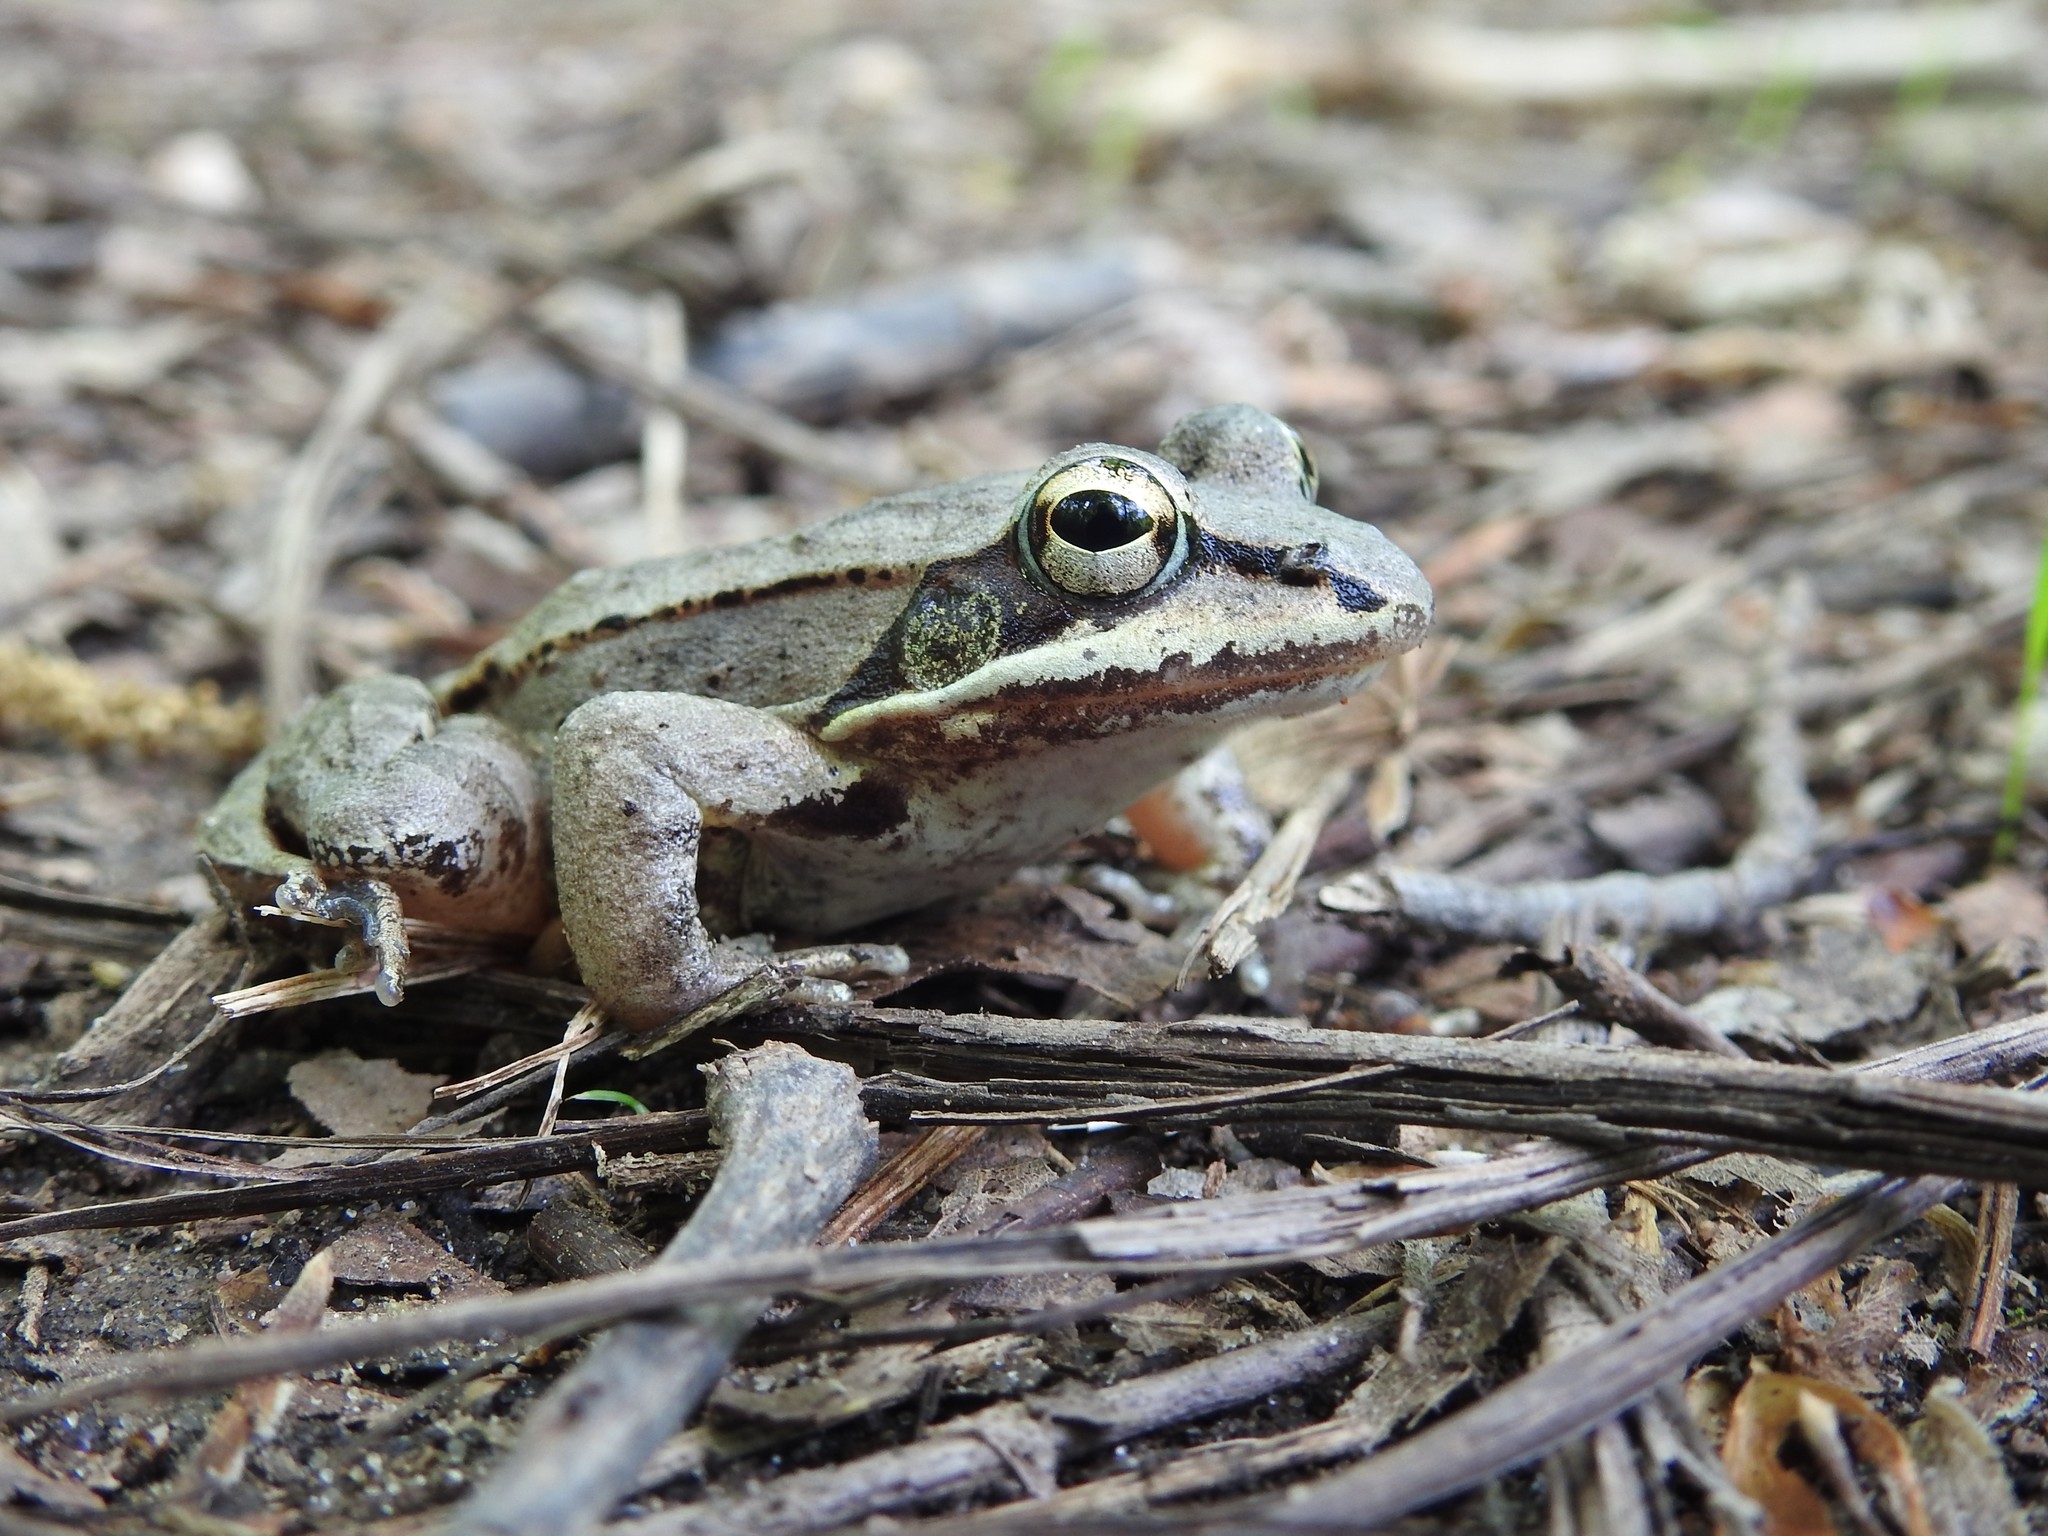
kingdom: Animalia
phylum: Chordata
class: Amphibia
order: Anura
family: Ranidae
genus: Lithobates
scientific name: Lithobates sylvaticus
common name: Wood frog
